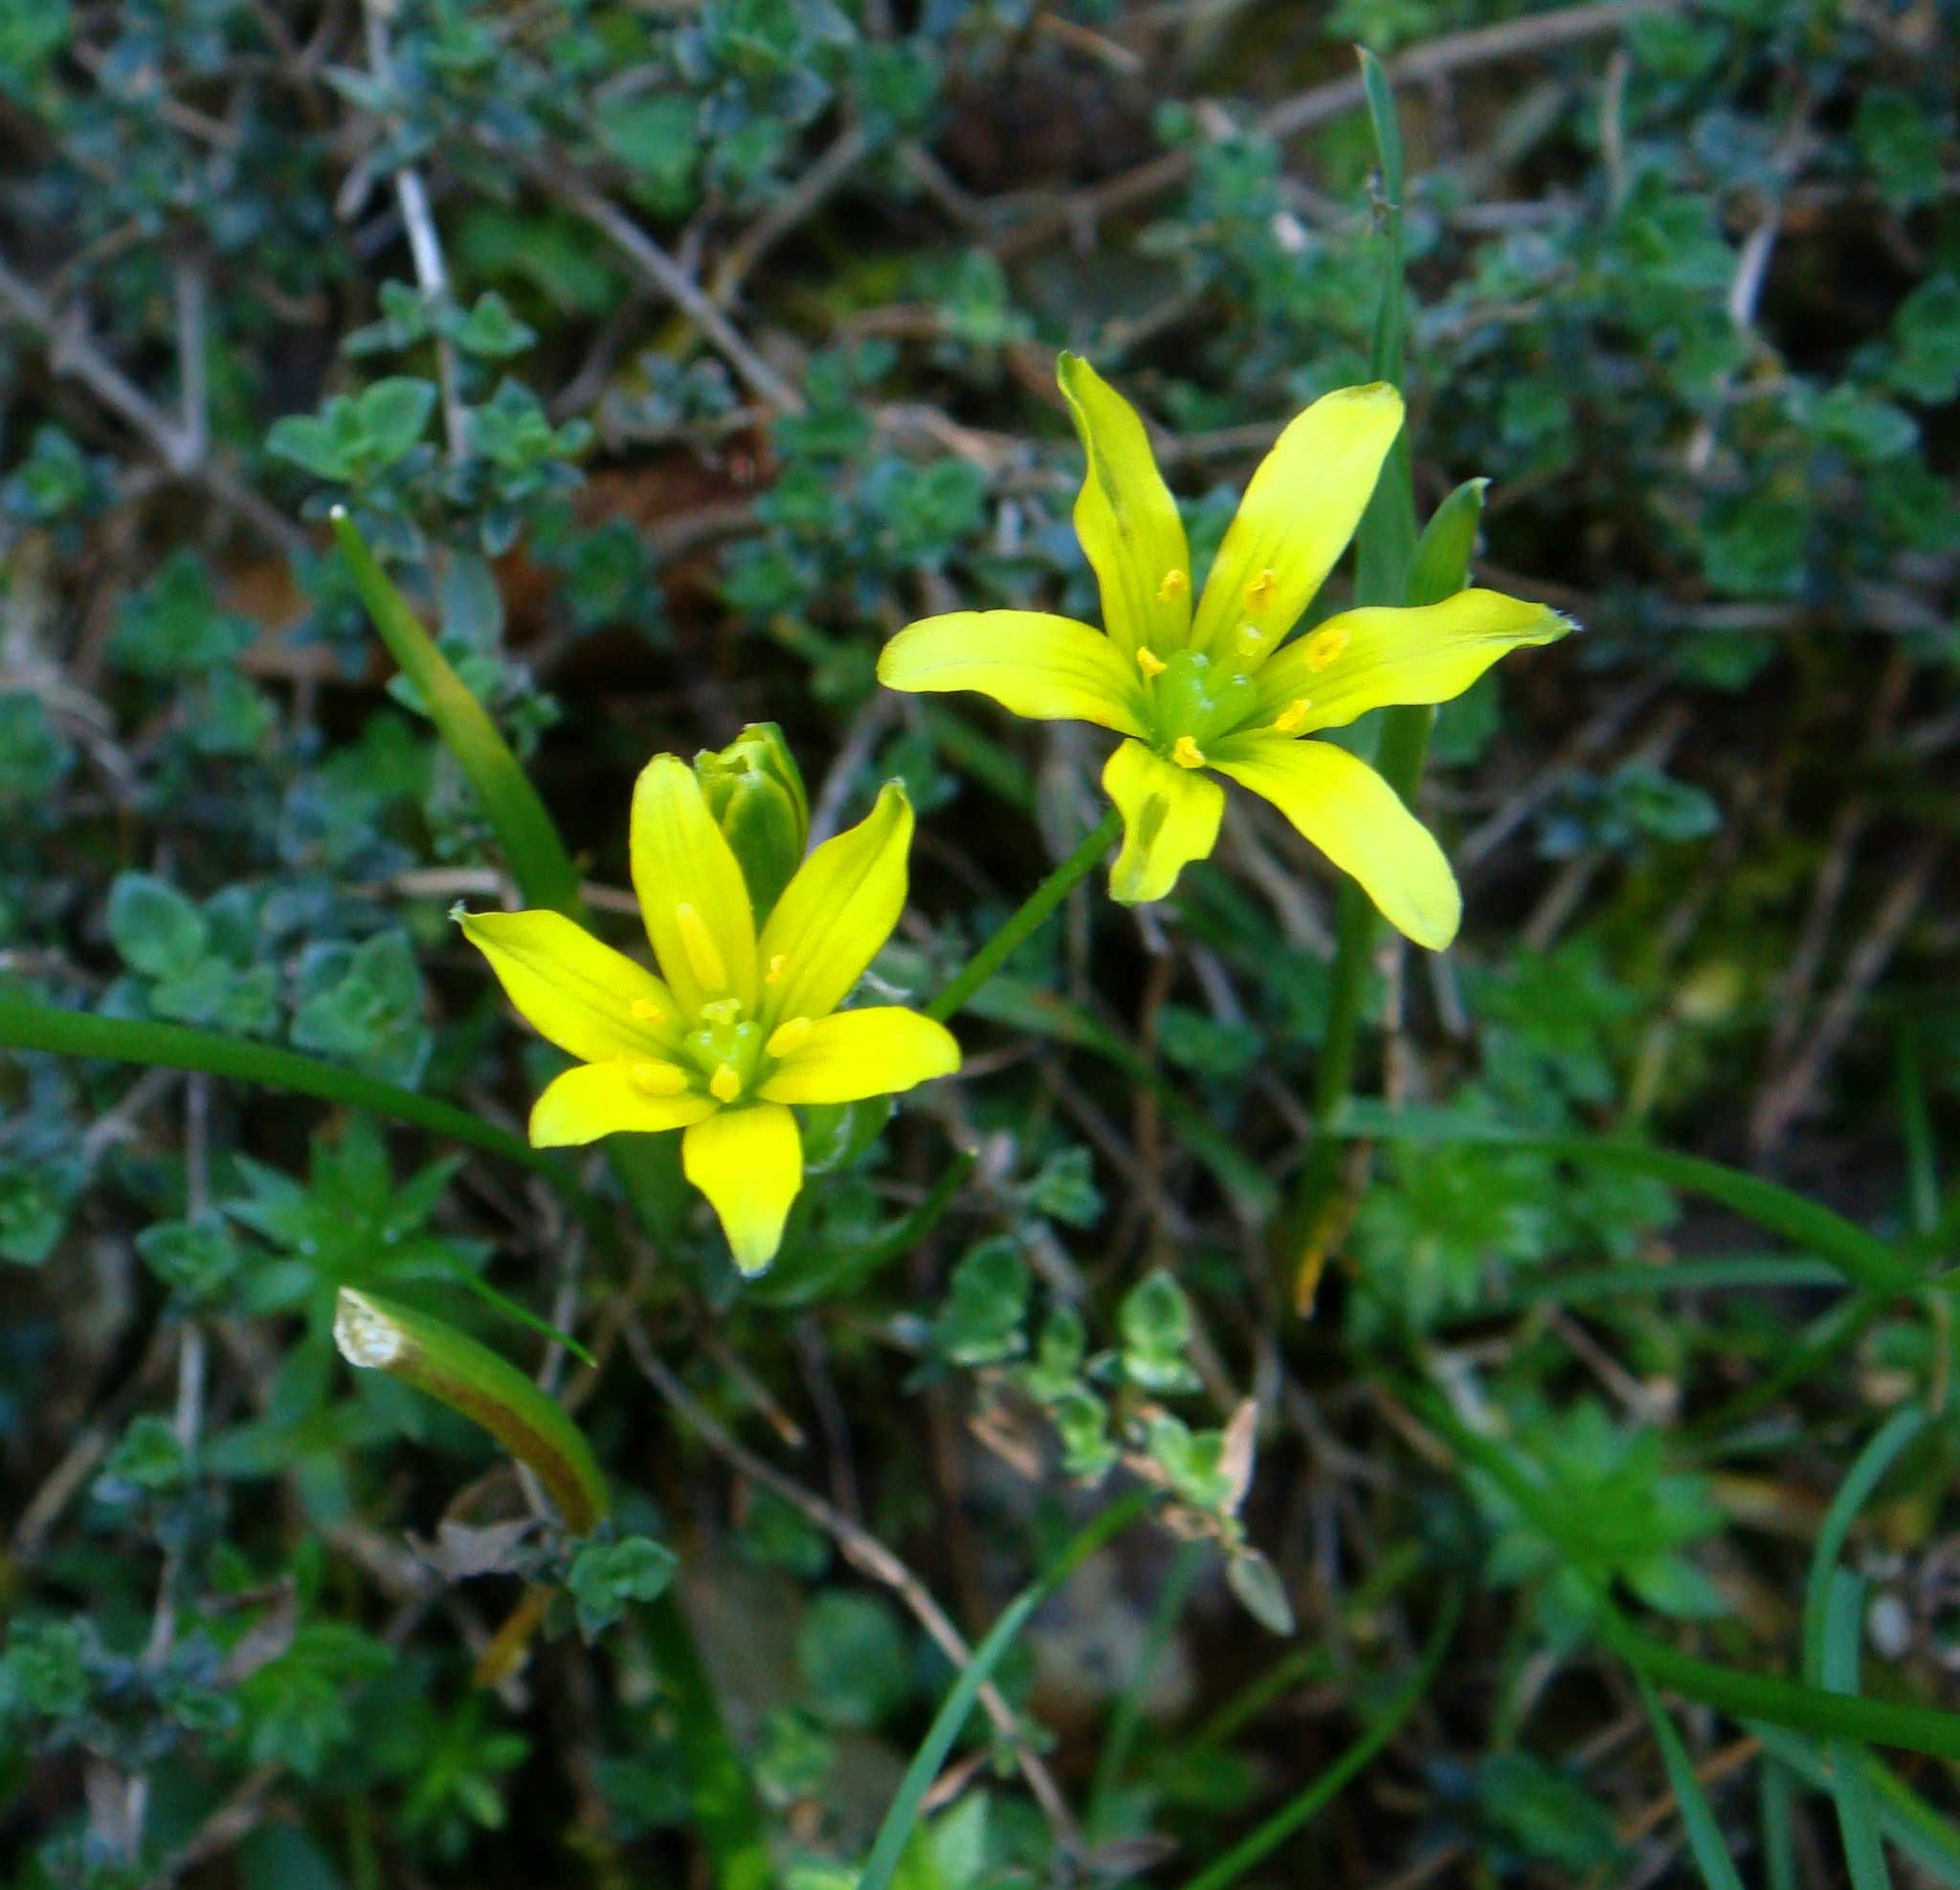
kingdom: Plantae
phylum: Tracheophyta
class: Liliopsida
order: Liliales
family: Liliaceae
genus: Gagea
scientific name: Gagea bohemica
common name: Early star-of-bethlehem
